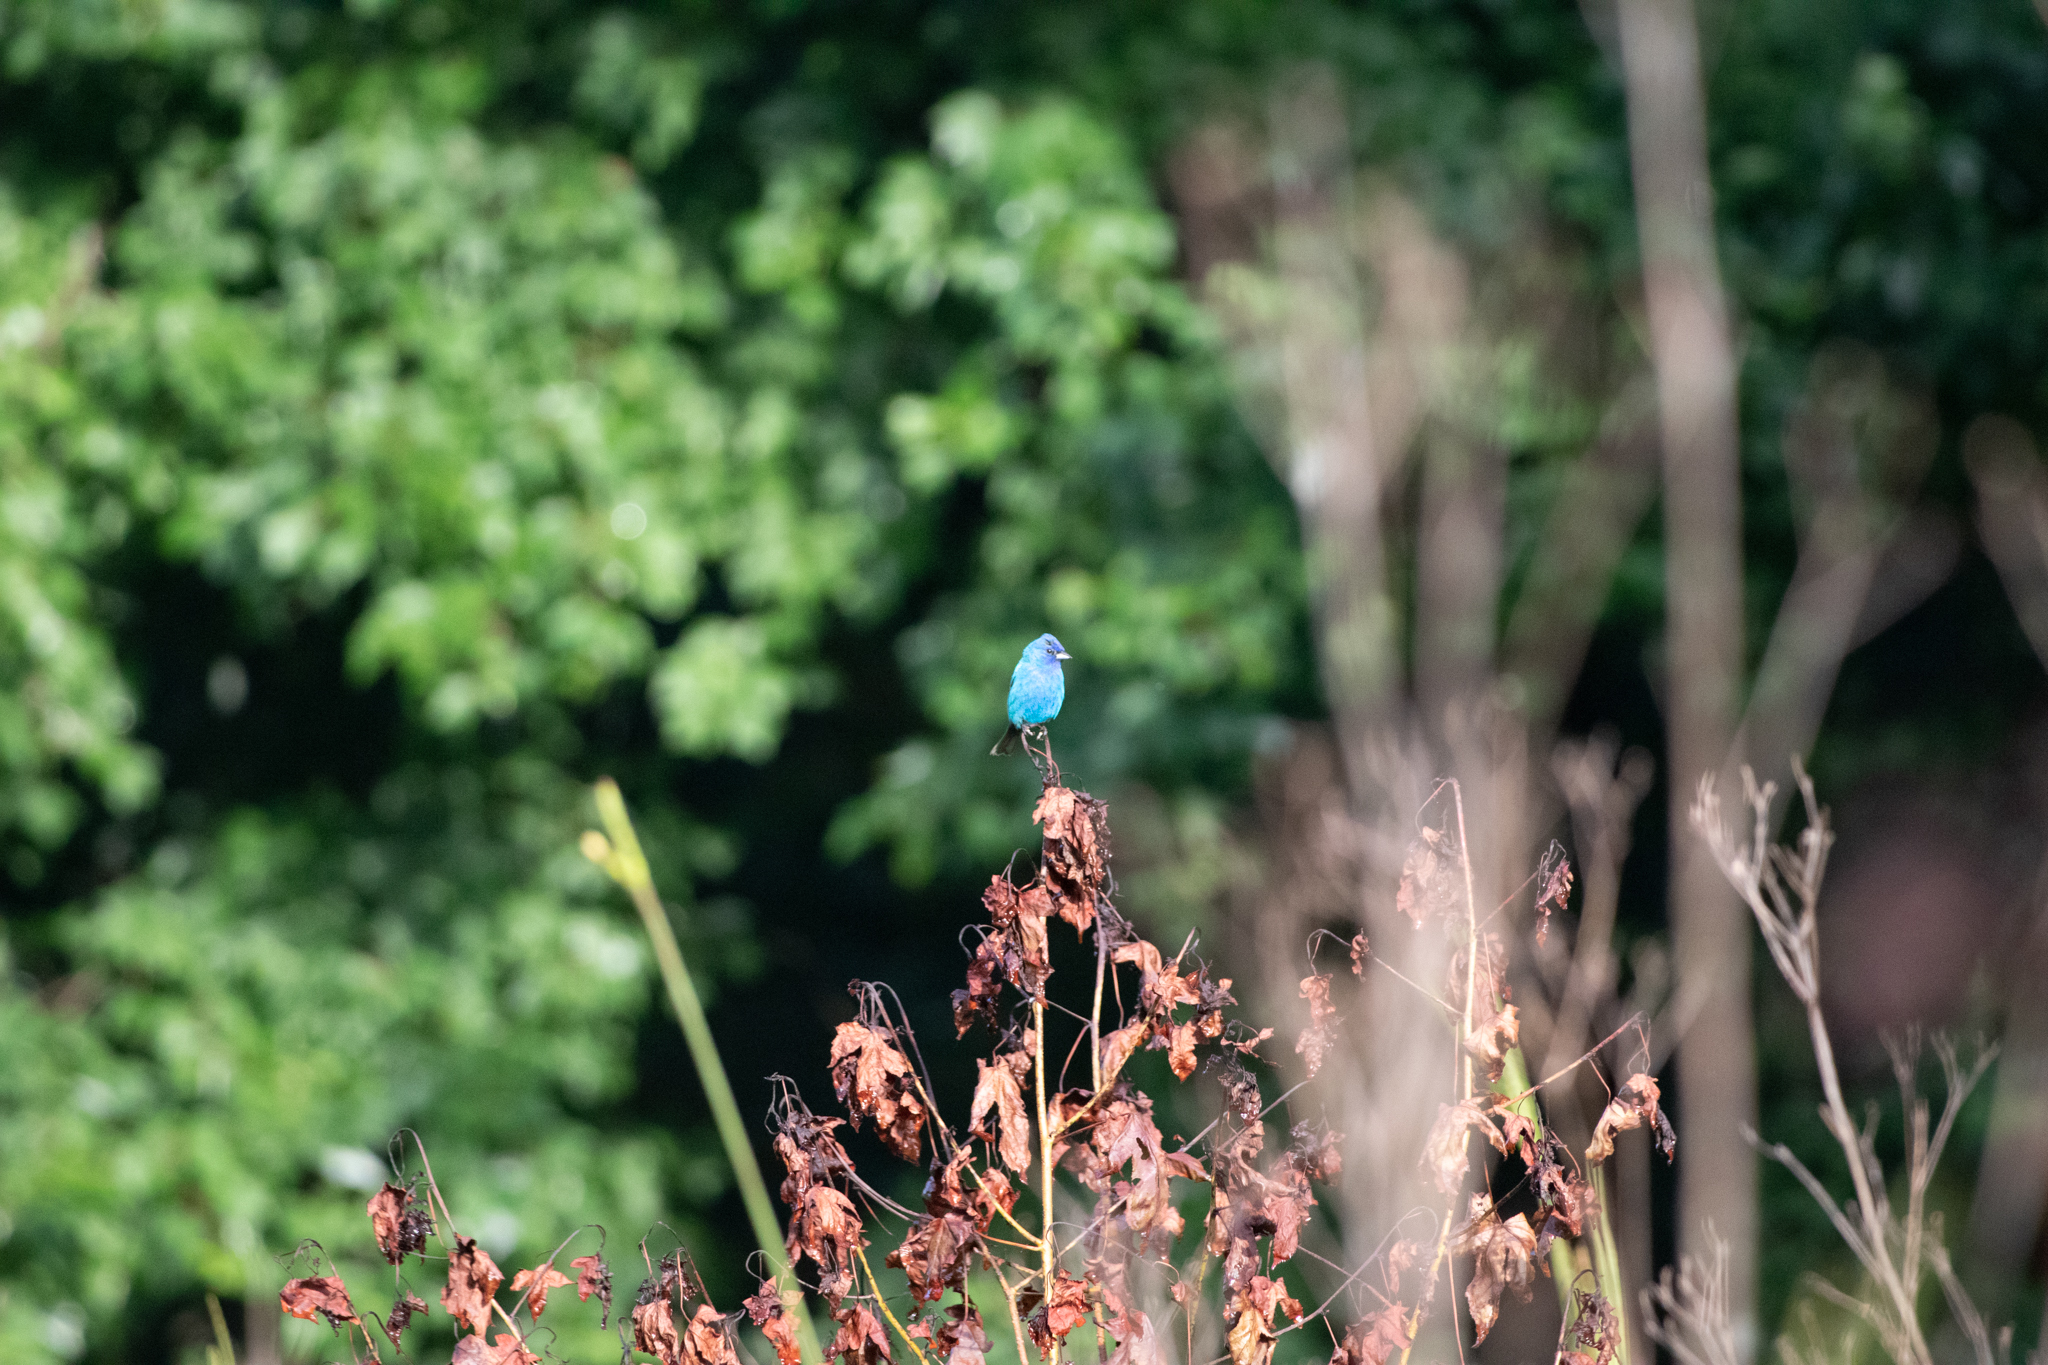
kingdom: Animalia
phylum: Chordata
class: Aves
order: Passeriformes
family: Cardinalidae
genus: Passerina
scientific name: Passerina cyanea
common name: Indigo bunting
